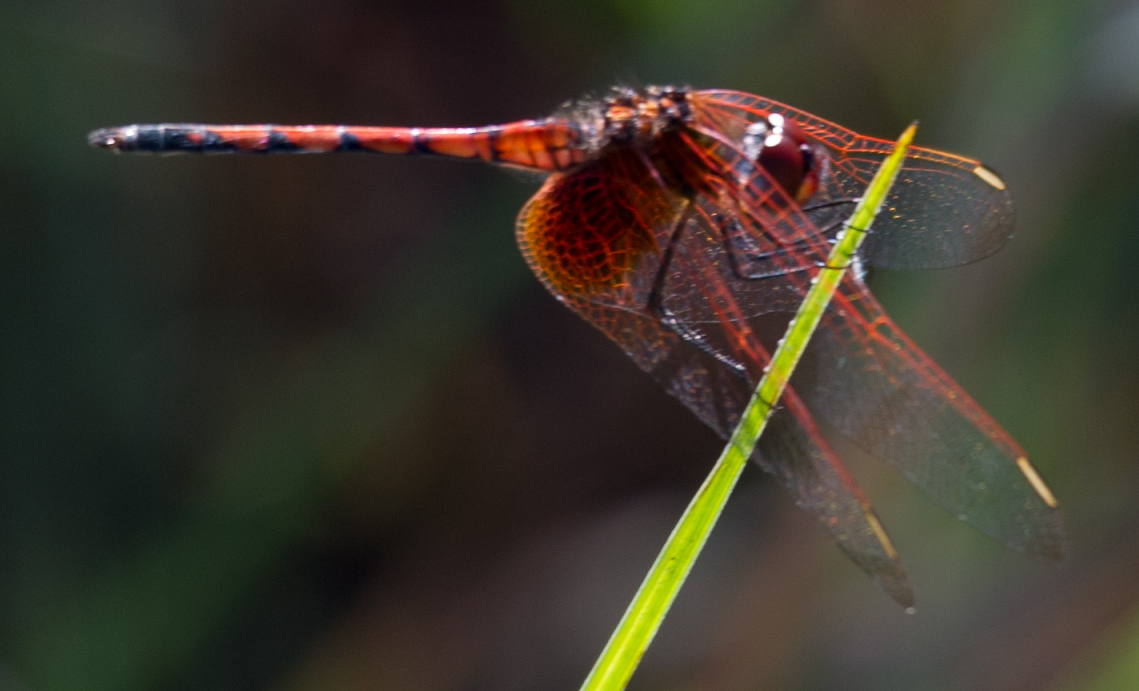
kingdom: Animalia
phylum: Arthropoda
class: Insecta
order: Odonata
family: Libellulidae
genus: Trithemis
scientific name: Trithemis monardi
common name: Monard's dropwing
